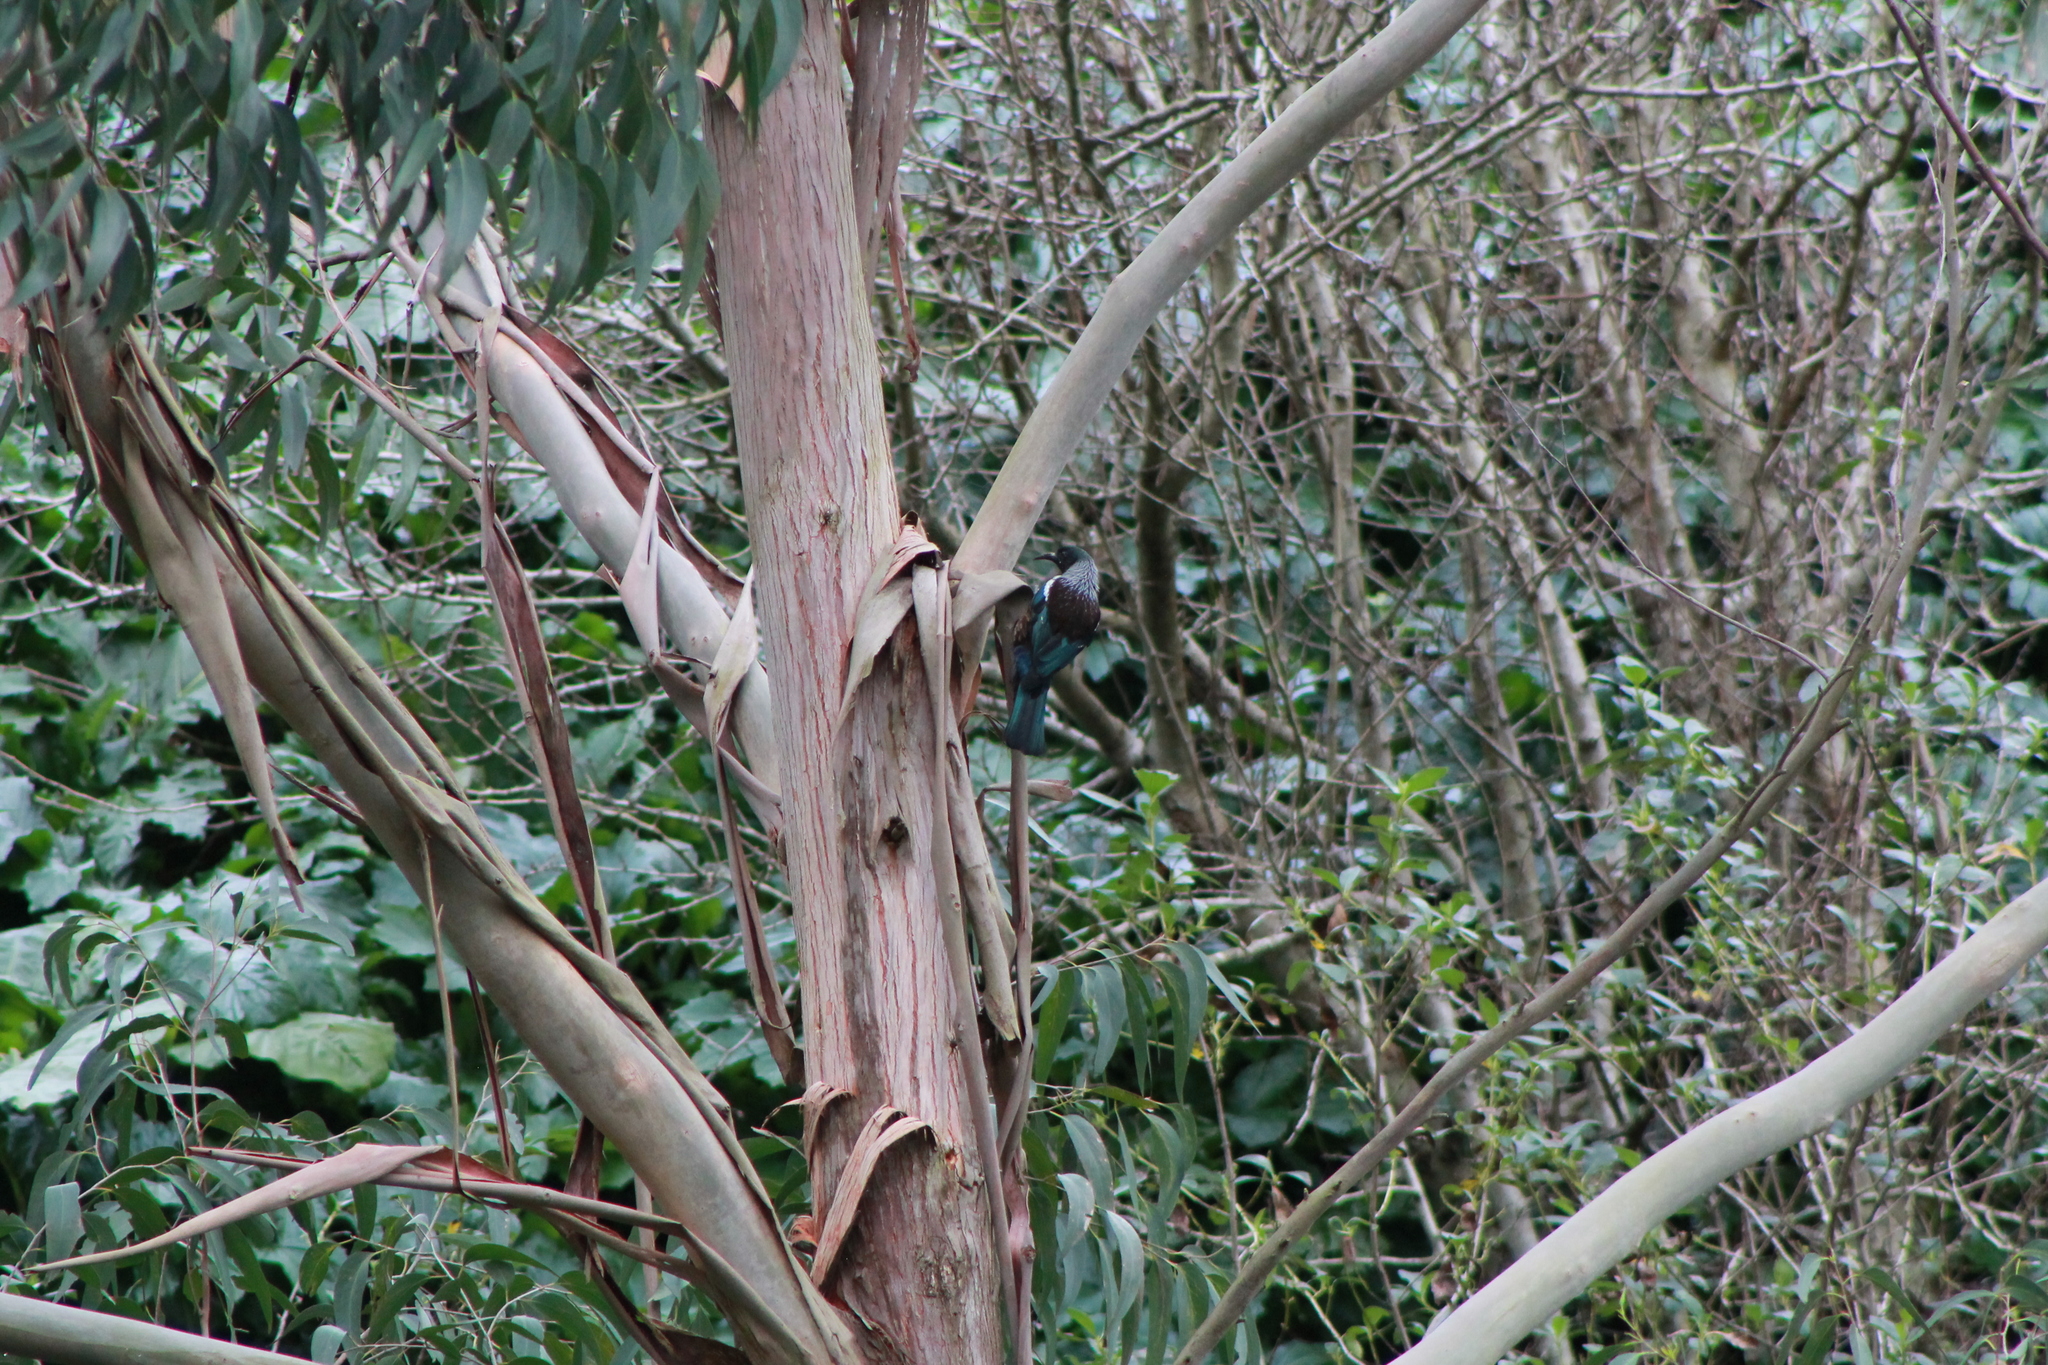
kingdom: Animalia
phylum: Chordata
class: Aves
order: Passeriformes
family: Meliphagidae
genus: Prosthemadera
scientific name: Prosthemadera novaeseelandiae
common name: Tui
